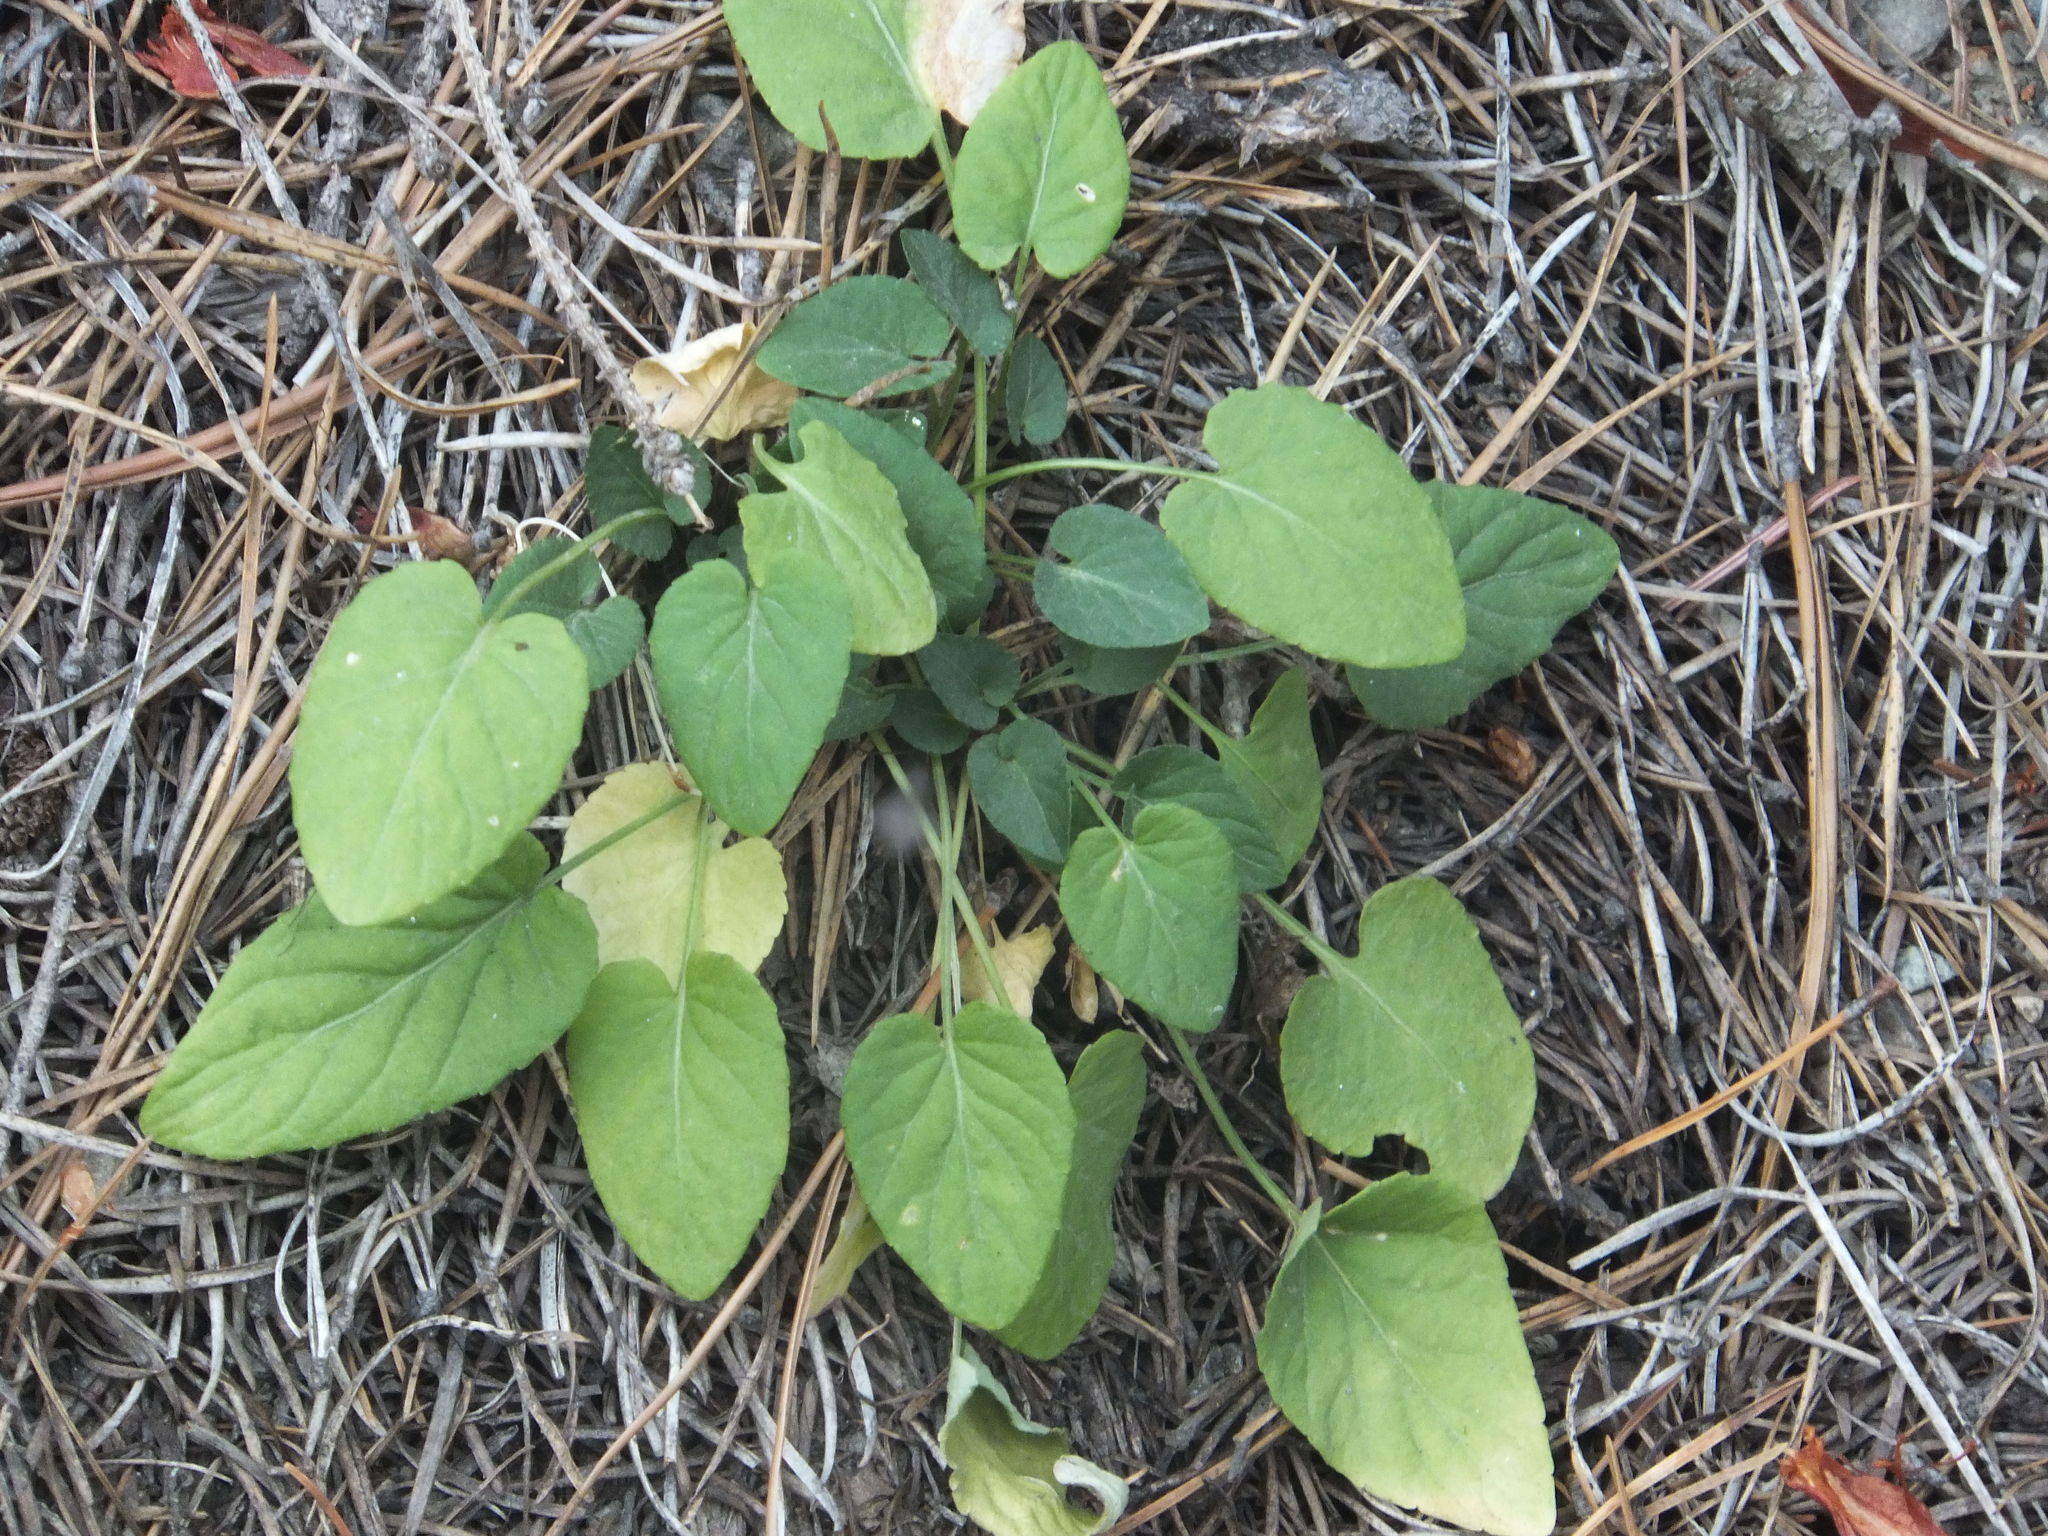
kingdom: Plantae
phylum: Tracheophyta
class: Magnoliopsida
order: Malpighiales
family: Violaceae
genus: Viola
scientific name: Viola adunca
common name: Sand violet
